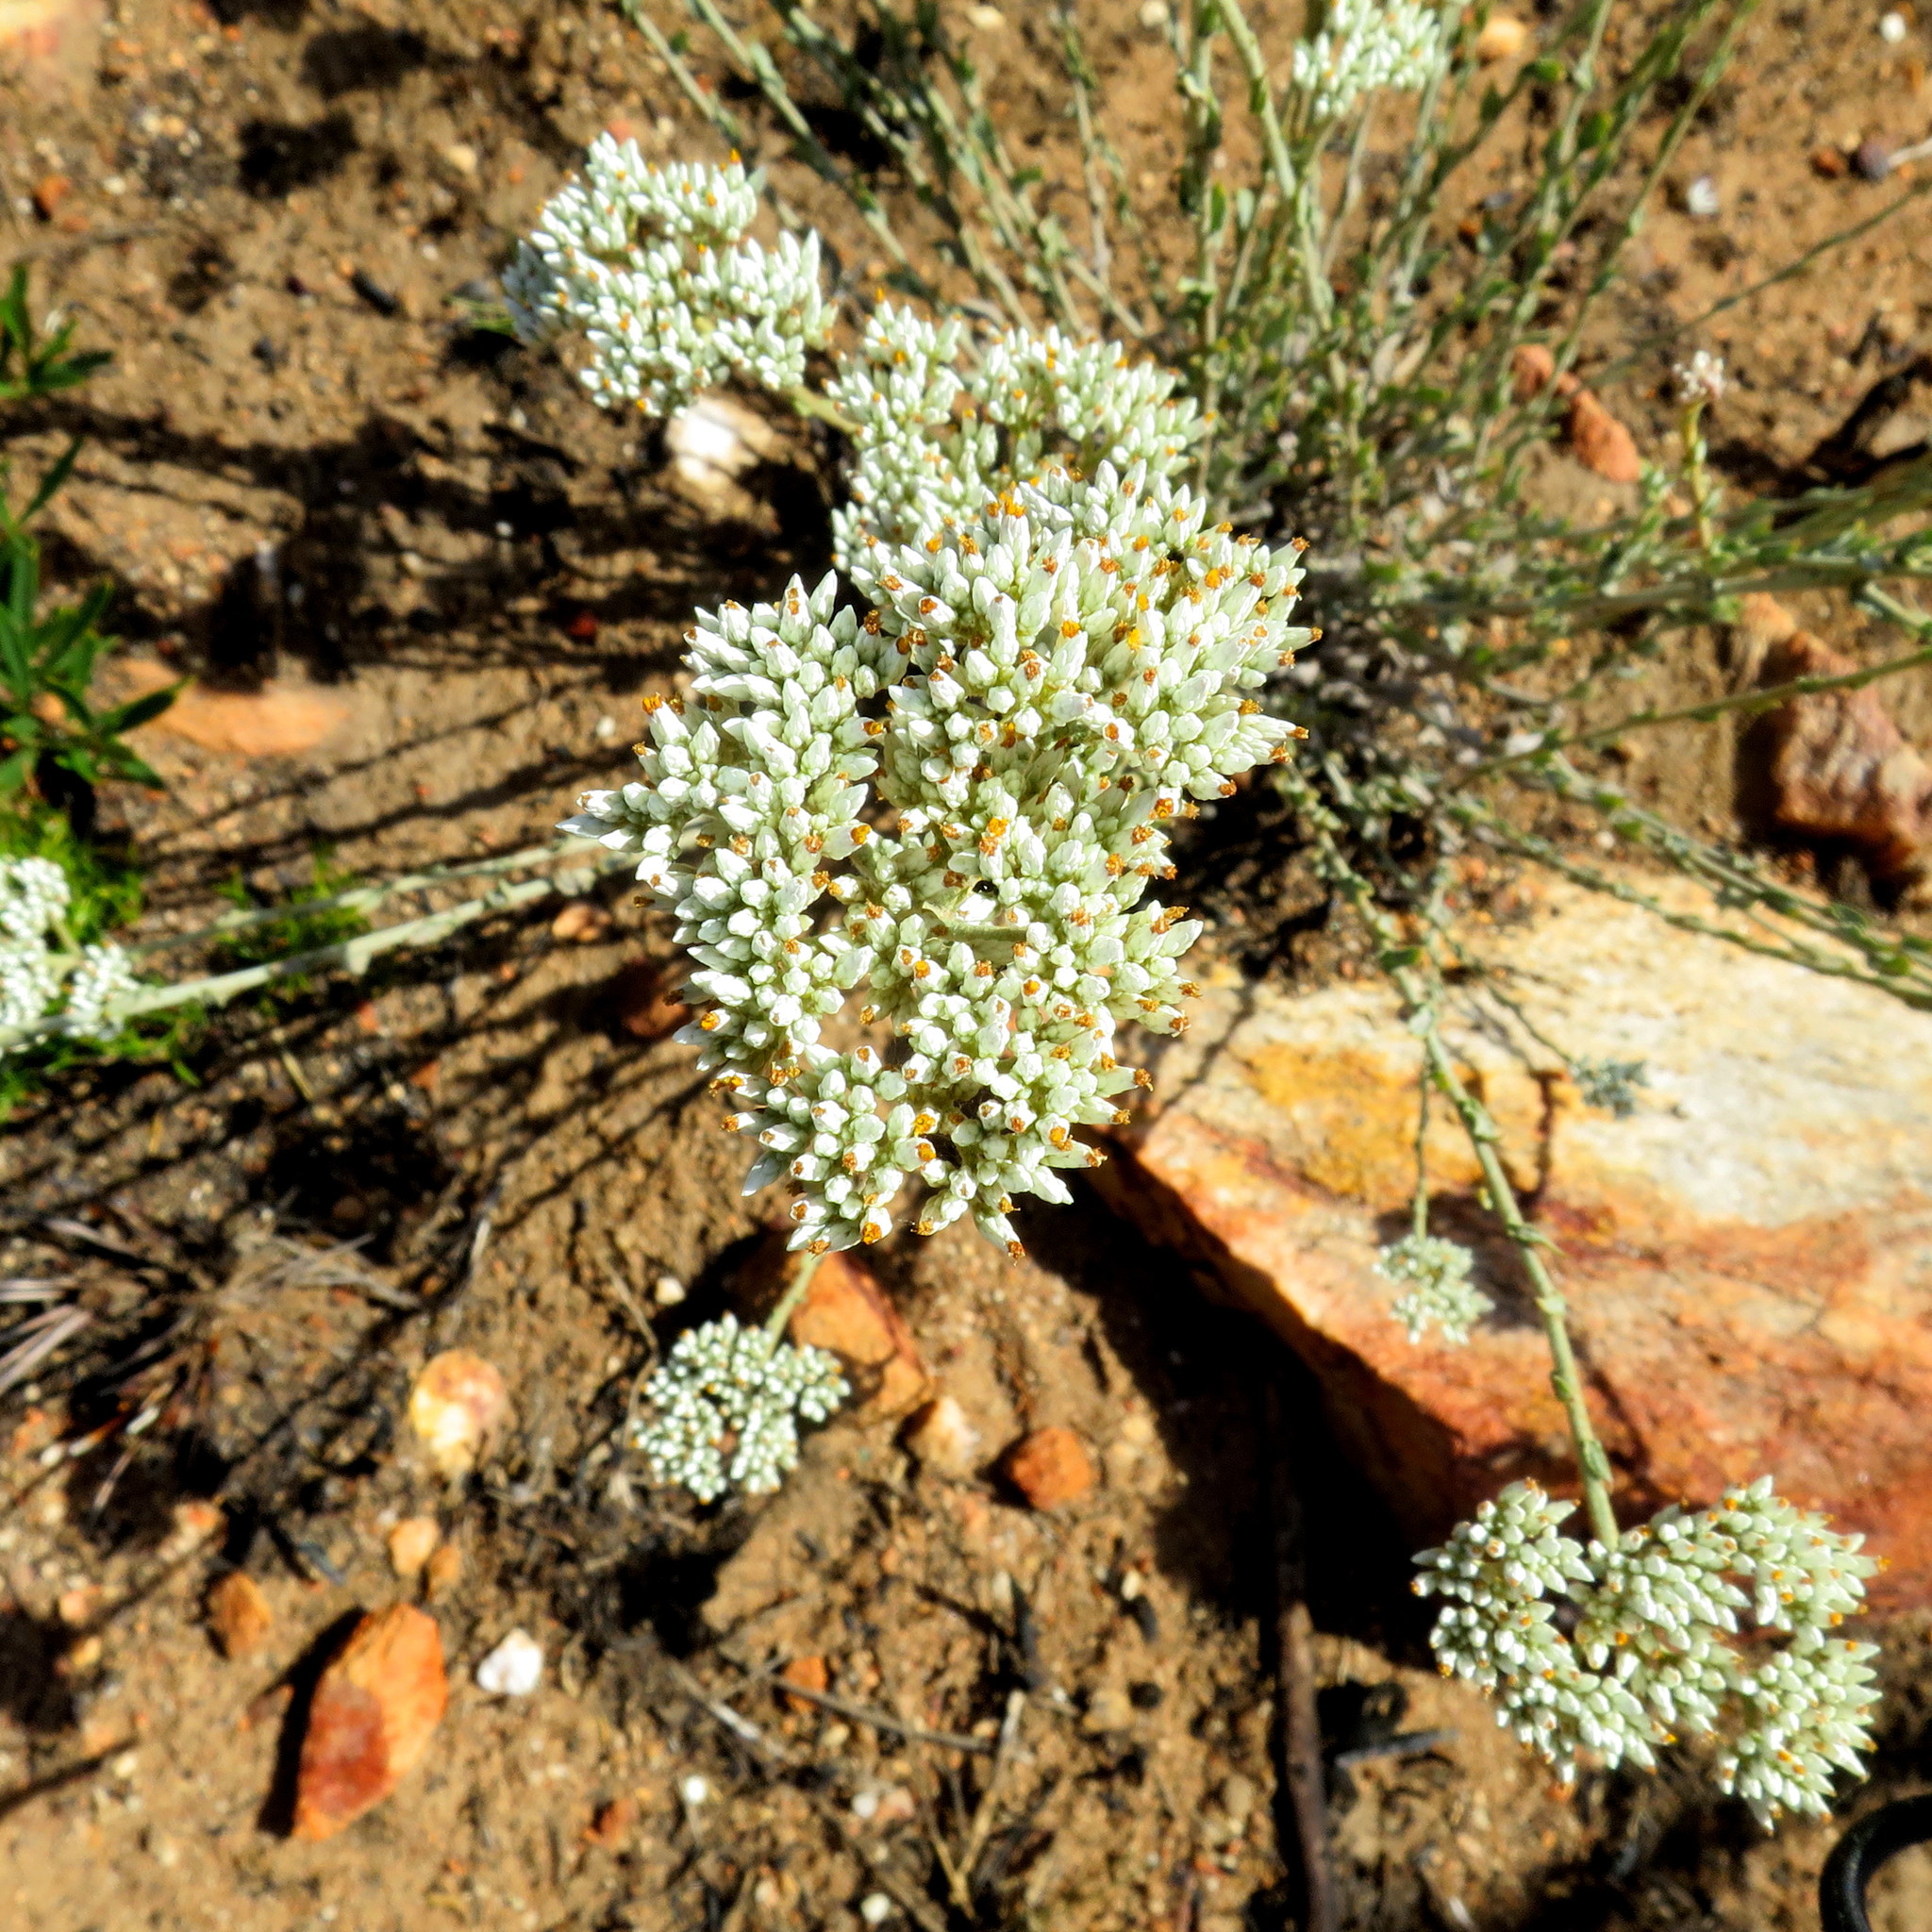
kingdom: Plantae
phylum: Tracheophyta
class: Magnoliopsida
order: Asterales
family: Asteraceae
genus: Helichrysum
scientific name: Helichrysum zeyheri
